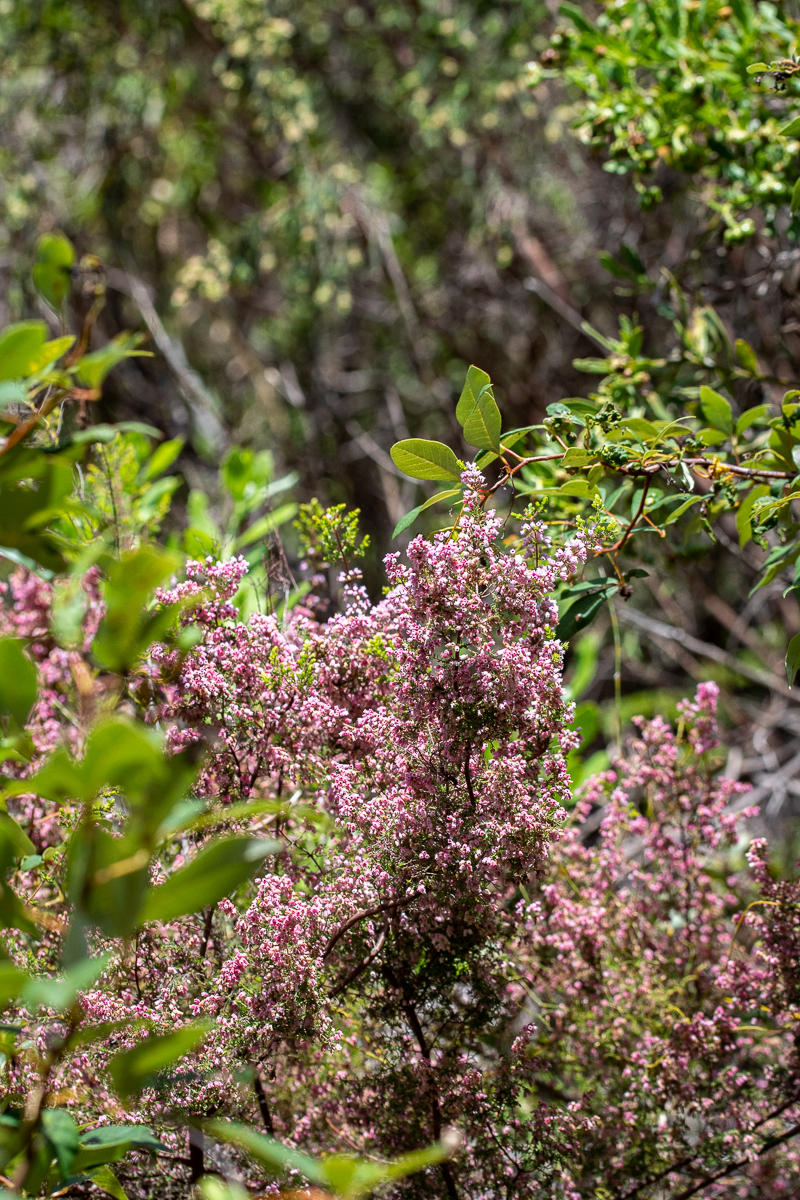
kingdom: Plantae
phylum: Tracheophyta
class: Magnoliopsida
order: Ericales
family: Ericaceae
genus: Erica
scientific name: Erica parviflora
